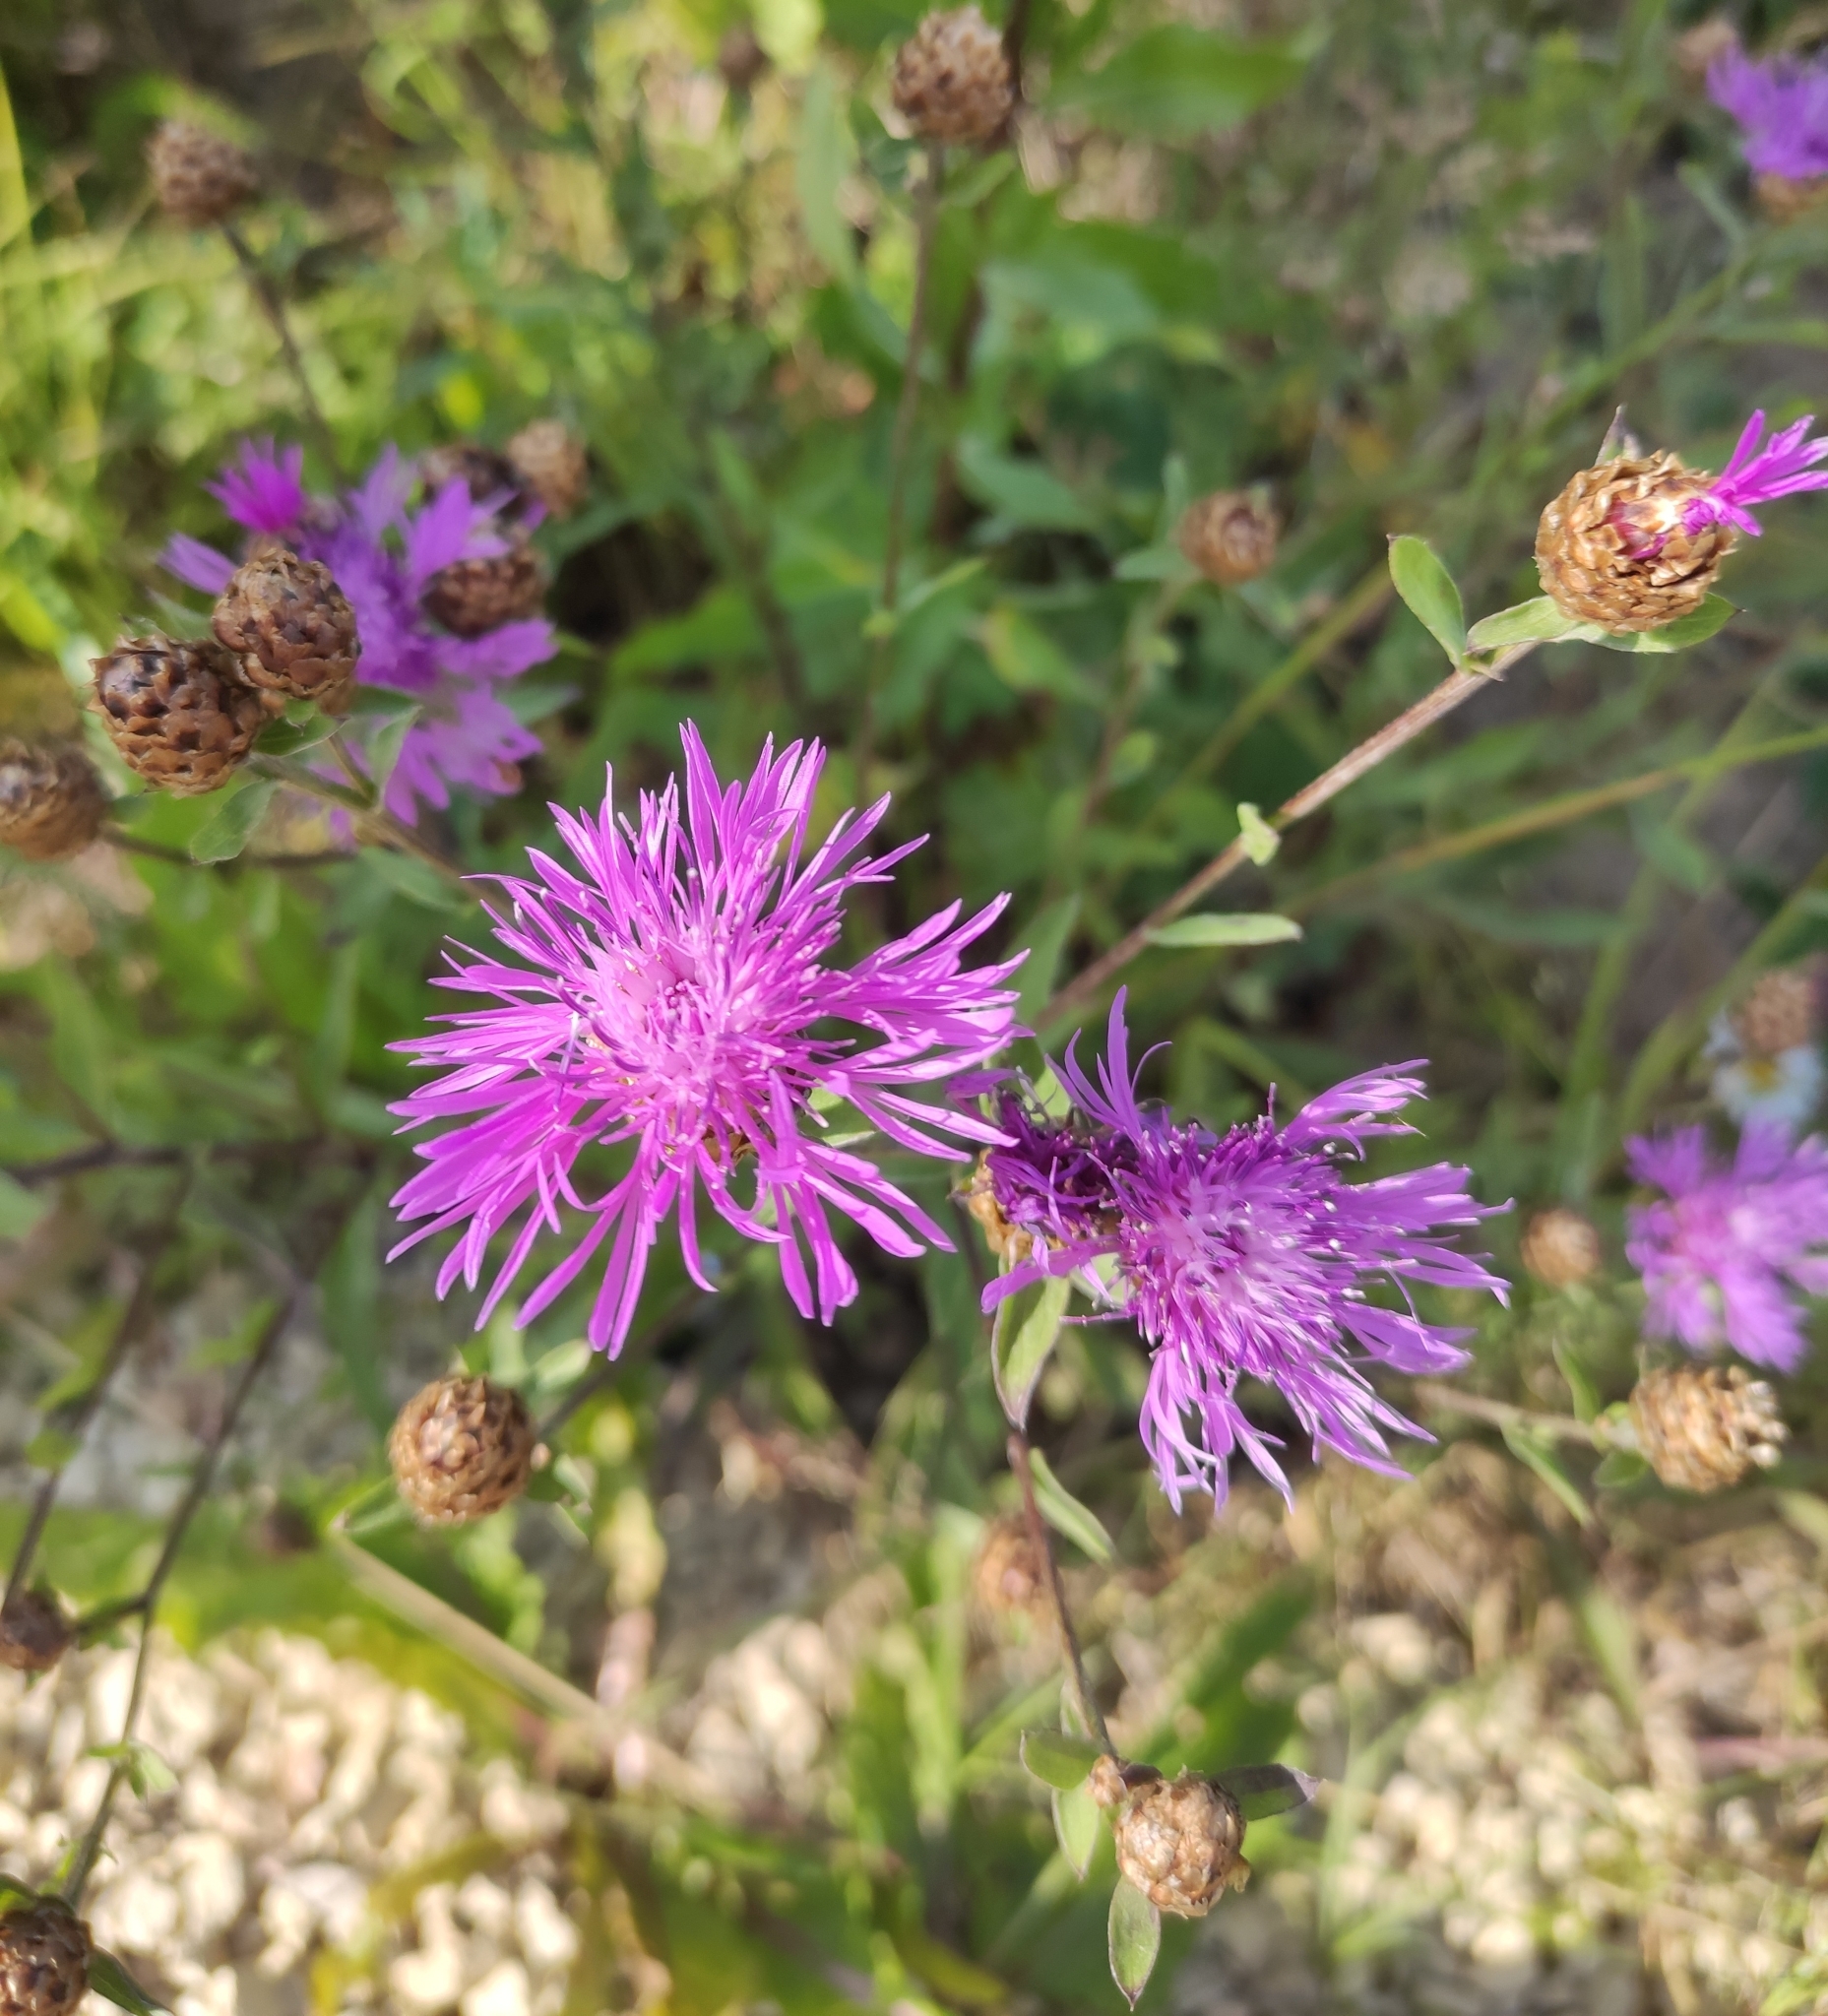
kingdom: Plantae
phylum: Tracheophyta
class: Magnoliopsida
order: Asterales
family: Asteraceae
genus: Centaurea
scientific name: Centaurea jacea
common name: Brown knapweed
